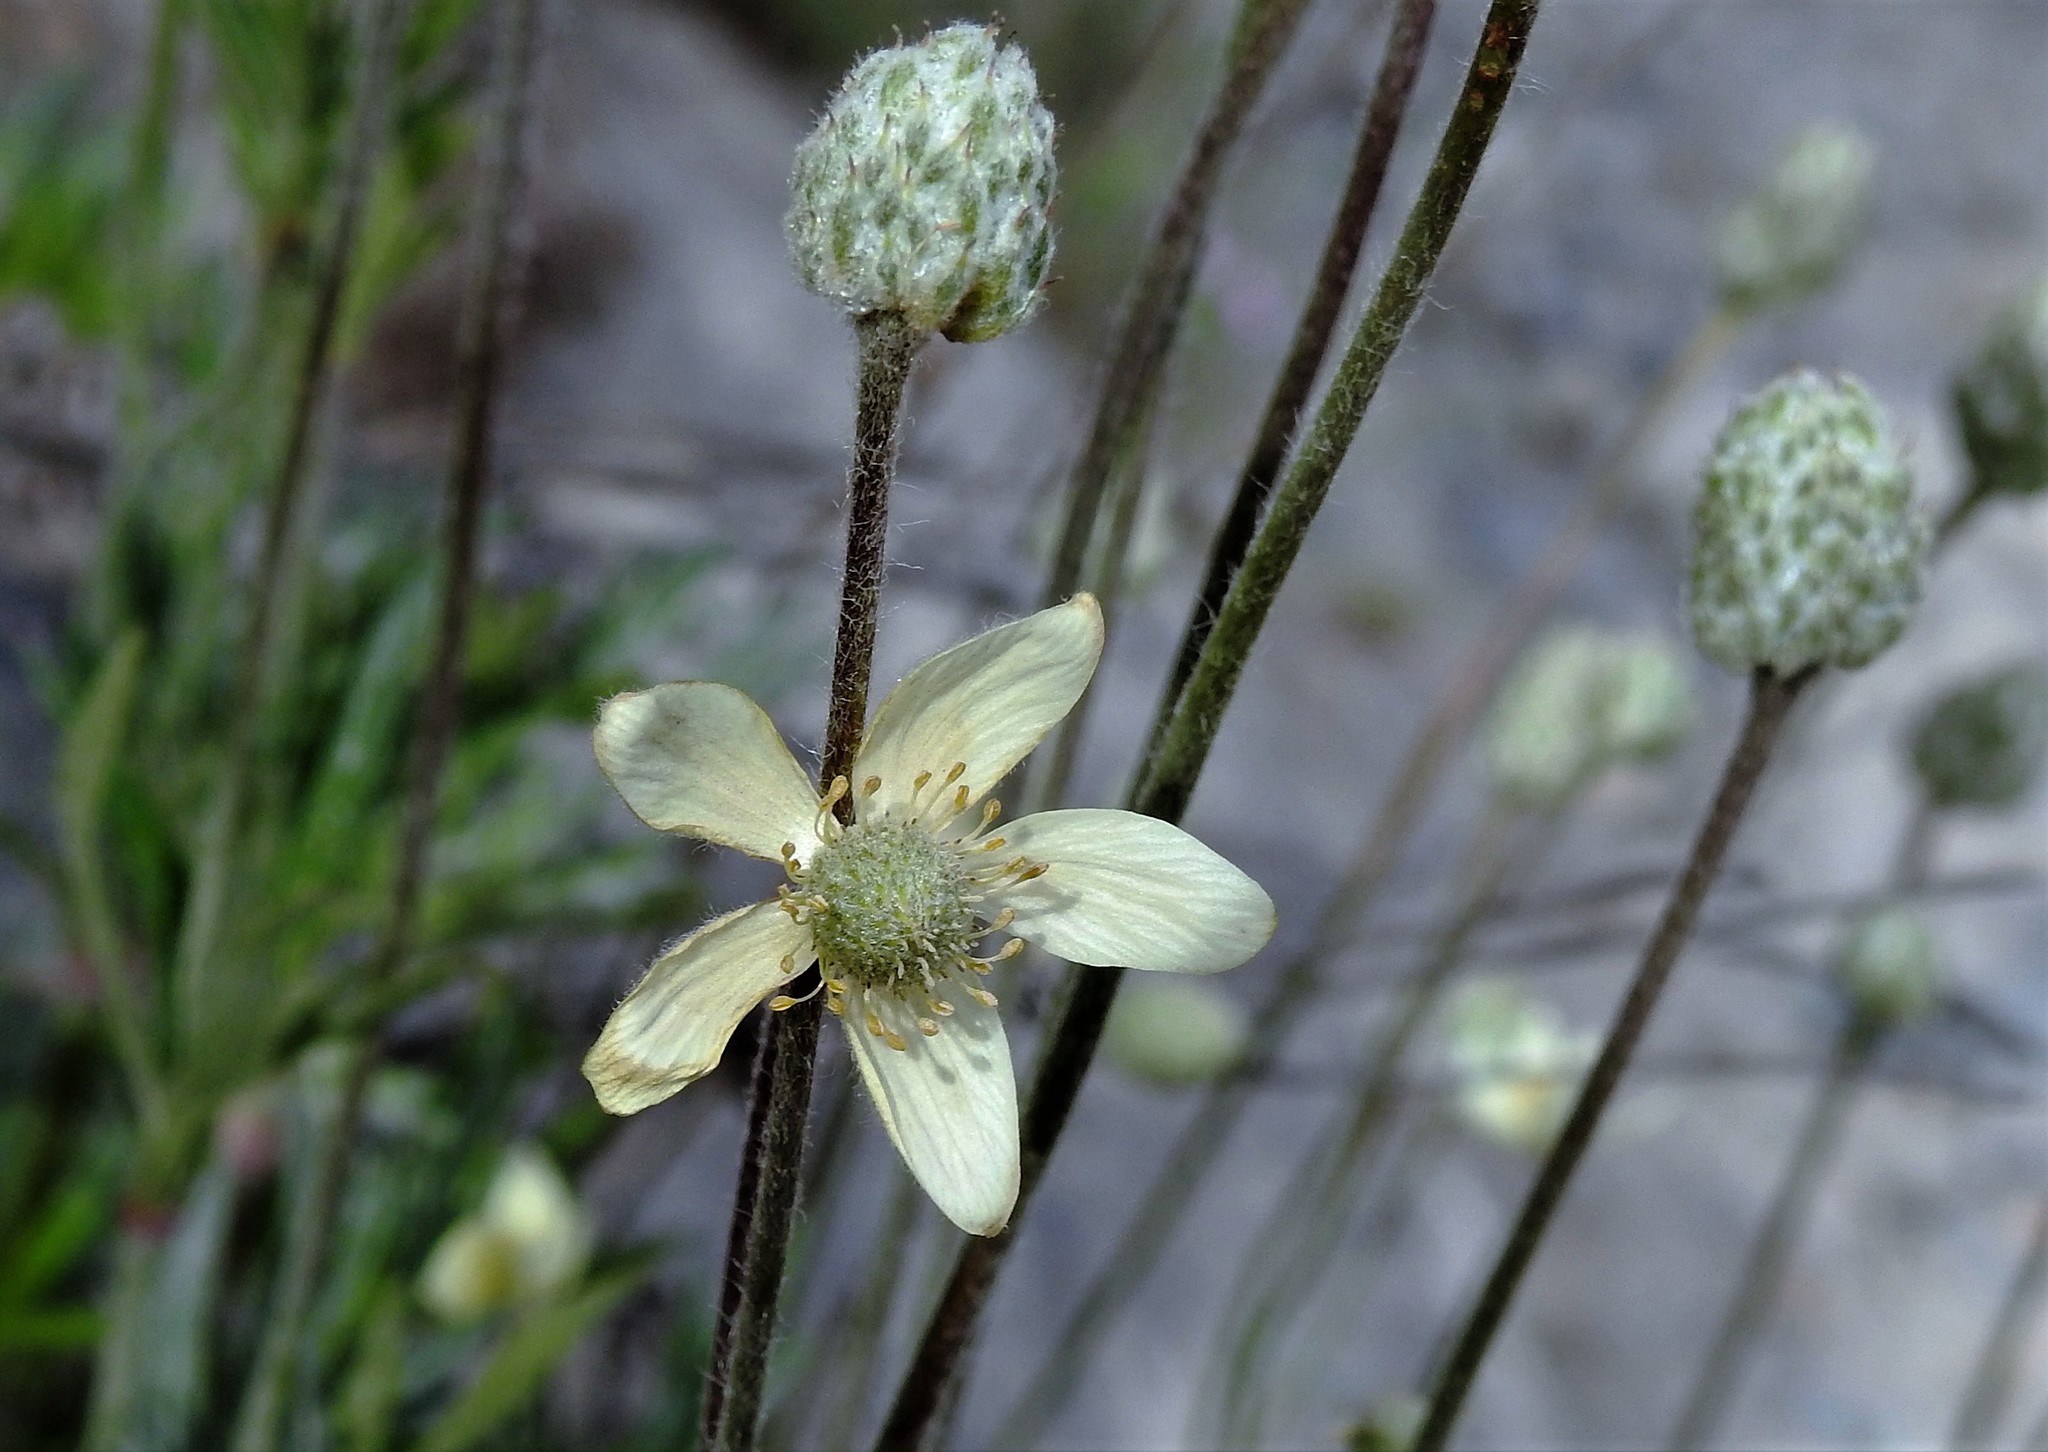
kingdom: Plantae
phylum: Tracheophyta
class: Magnoliopsida
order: Ranunculales
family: Ranunculaceae
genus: Anemone
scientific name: Anemone multifida
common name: Bird's-foot anemone
